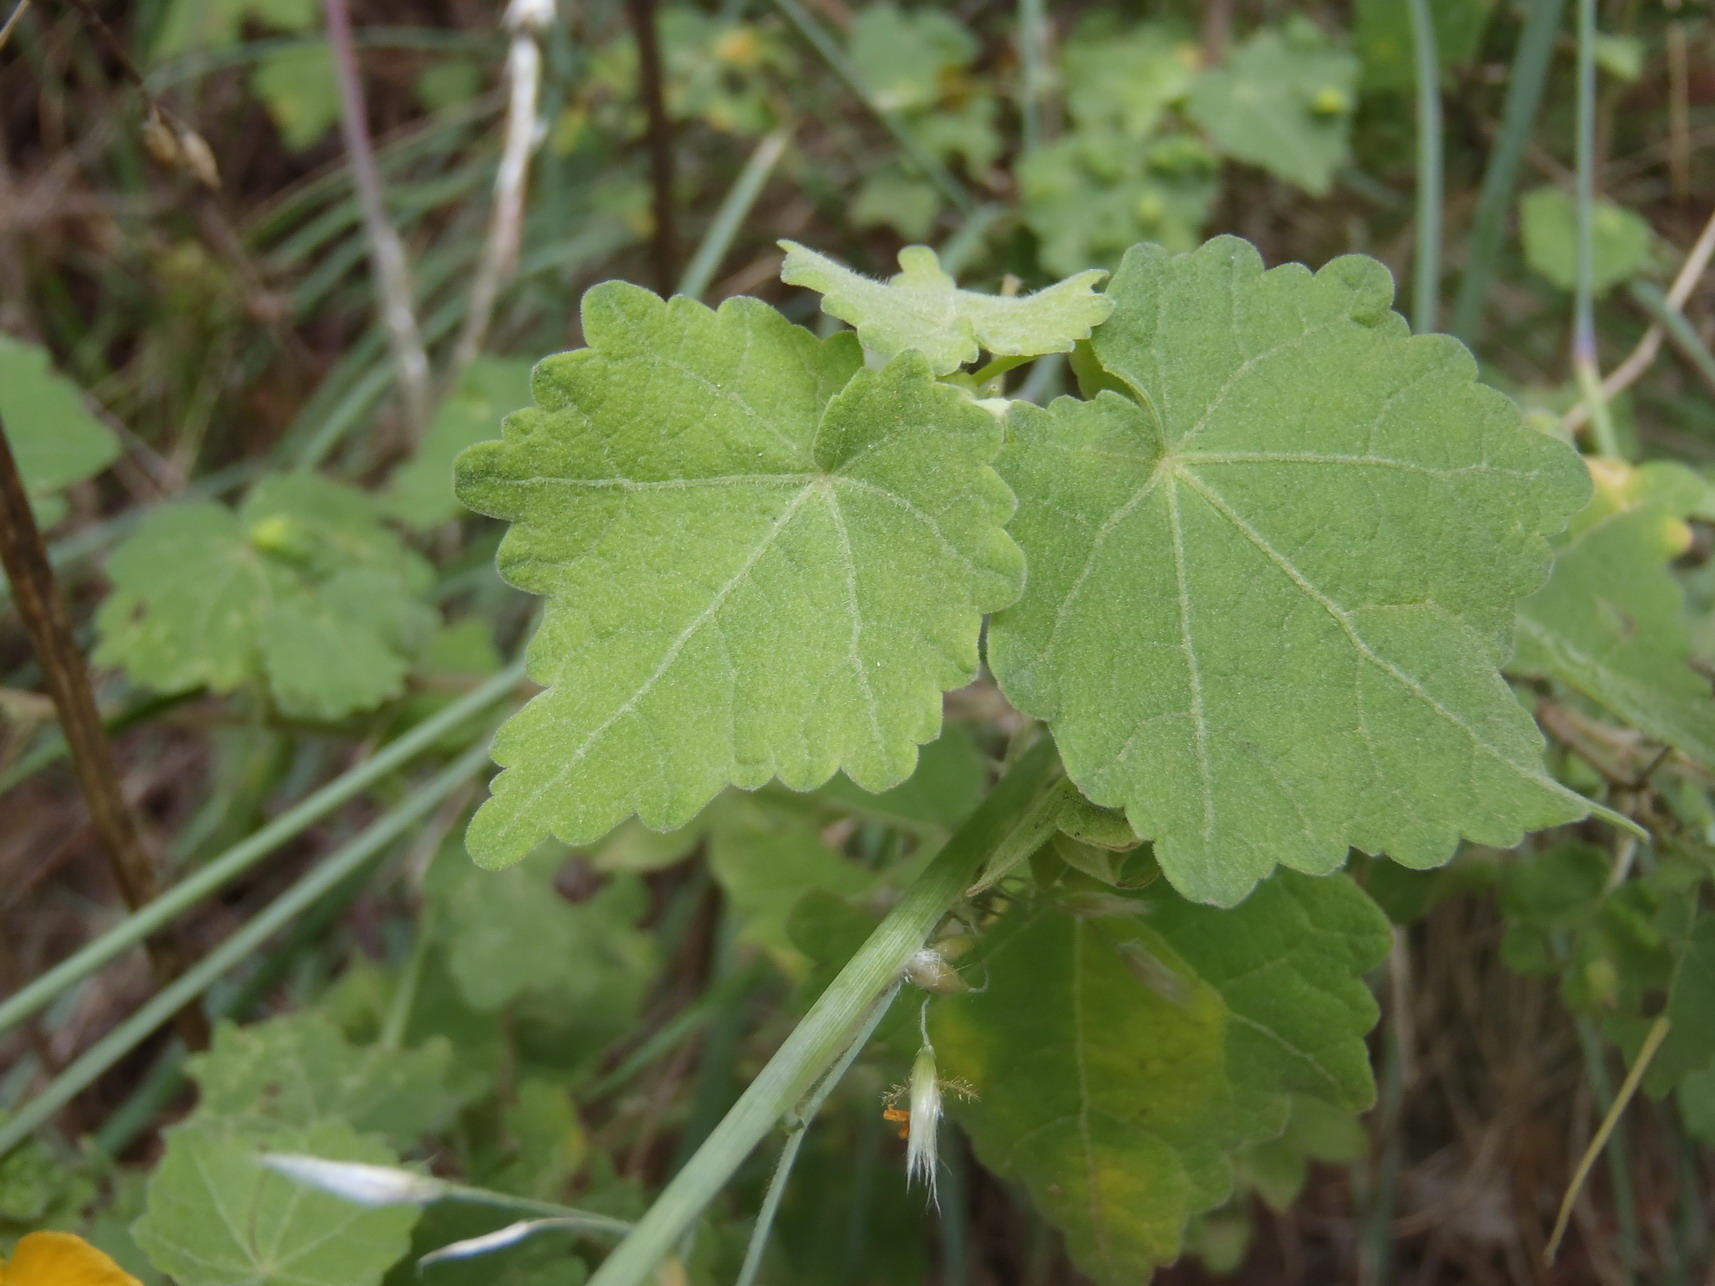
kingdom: Plantae
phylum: Tracheophyta
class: Magnoliopsida
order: Malvales
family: Malvaceae
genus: Pavonia
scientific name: Pavonia burchellii
